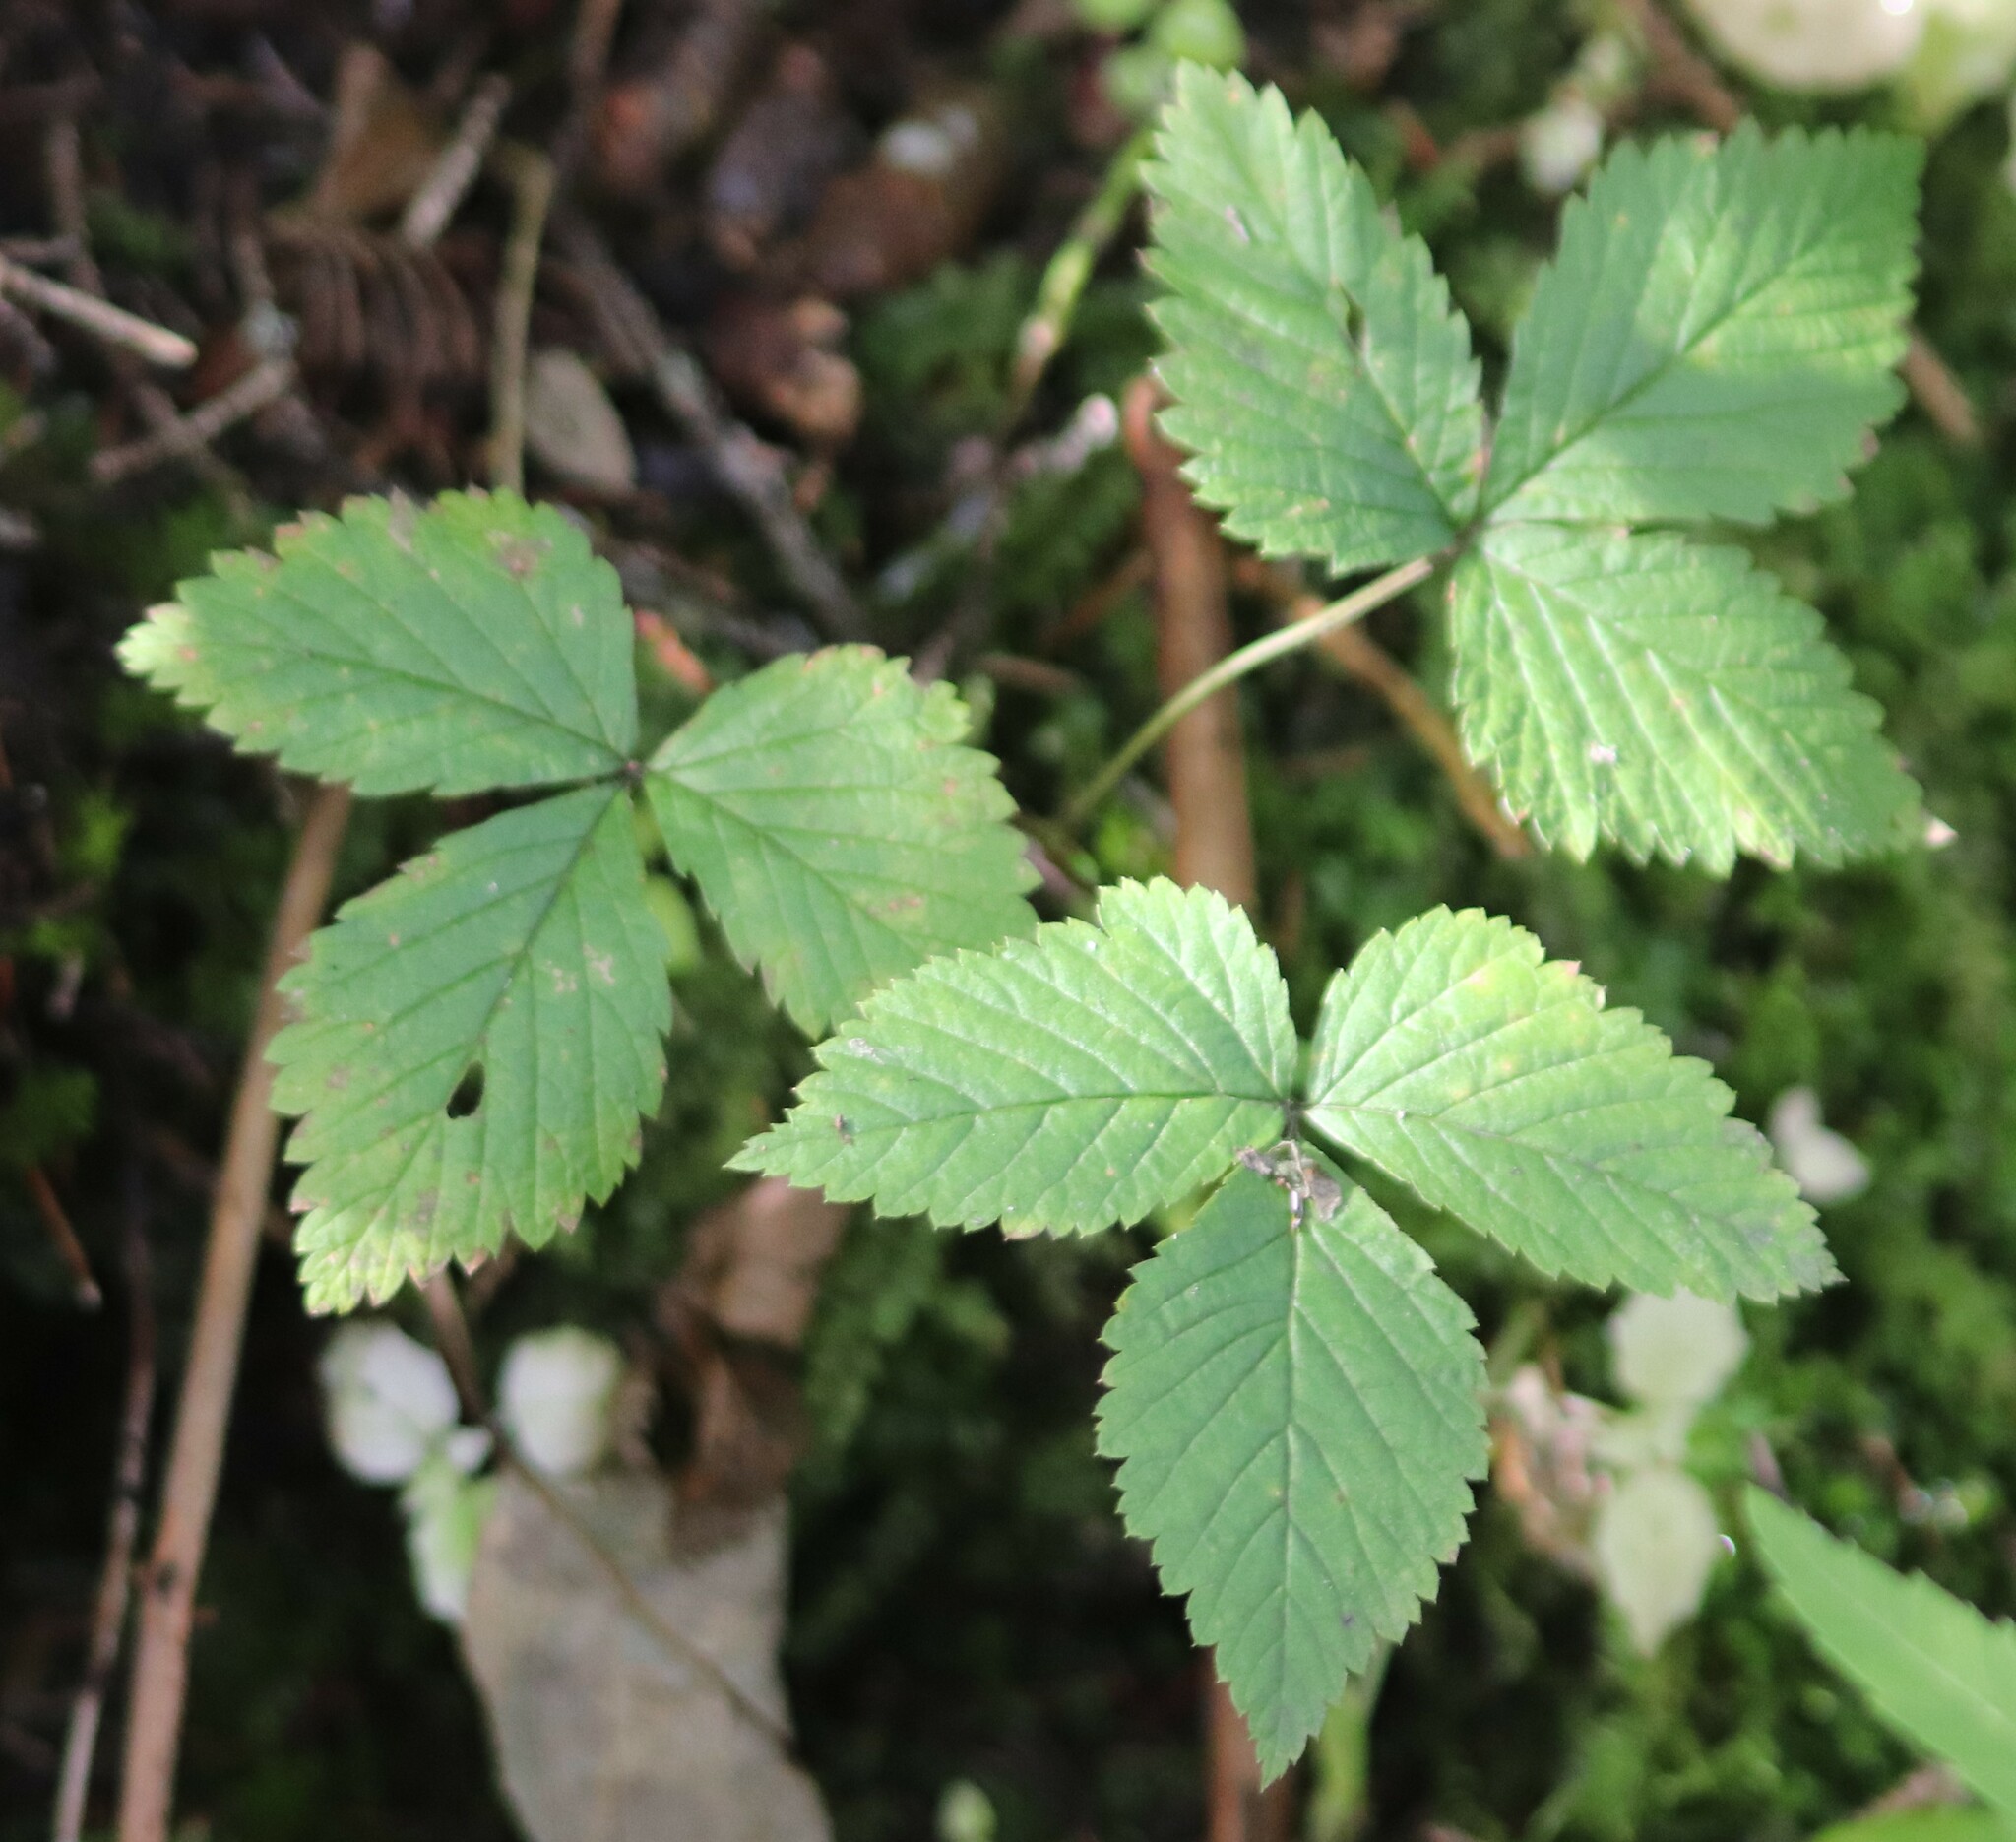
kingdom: Plantae
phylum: Tracheophyta
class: Magnoliopsida
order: Rosales
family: Rosaceae
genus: Rubus
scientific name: Rubus pubescens
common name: Dwarf raspberry
